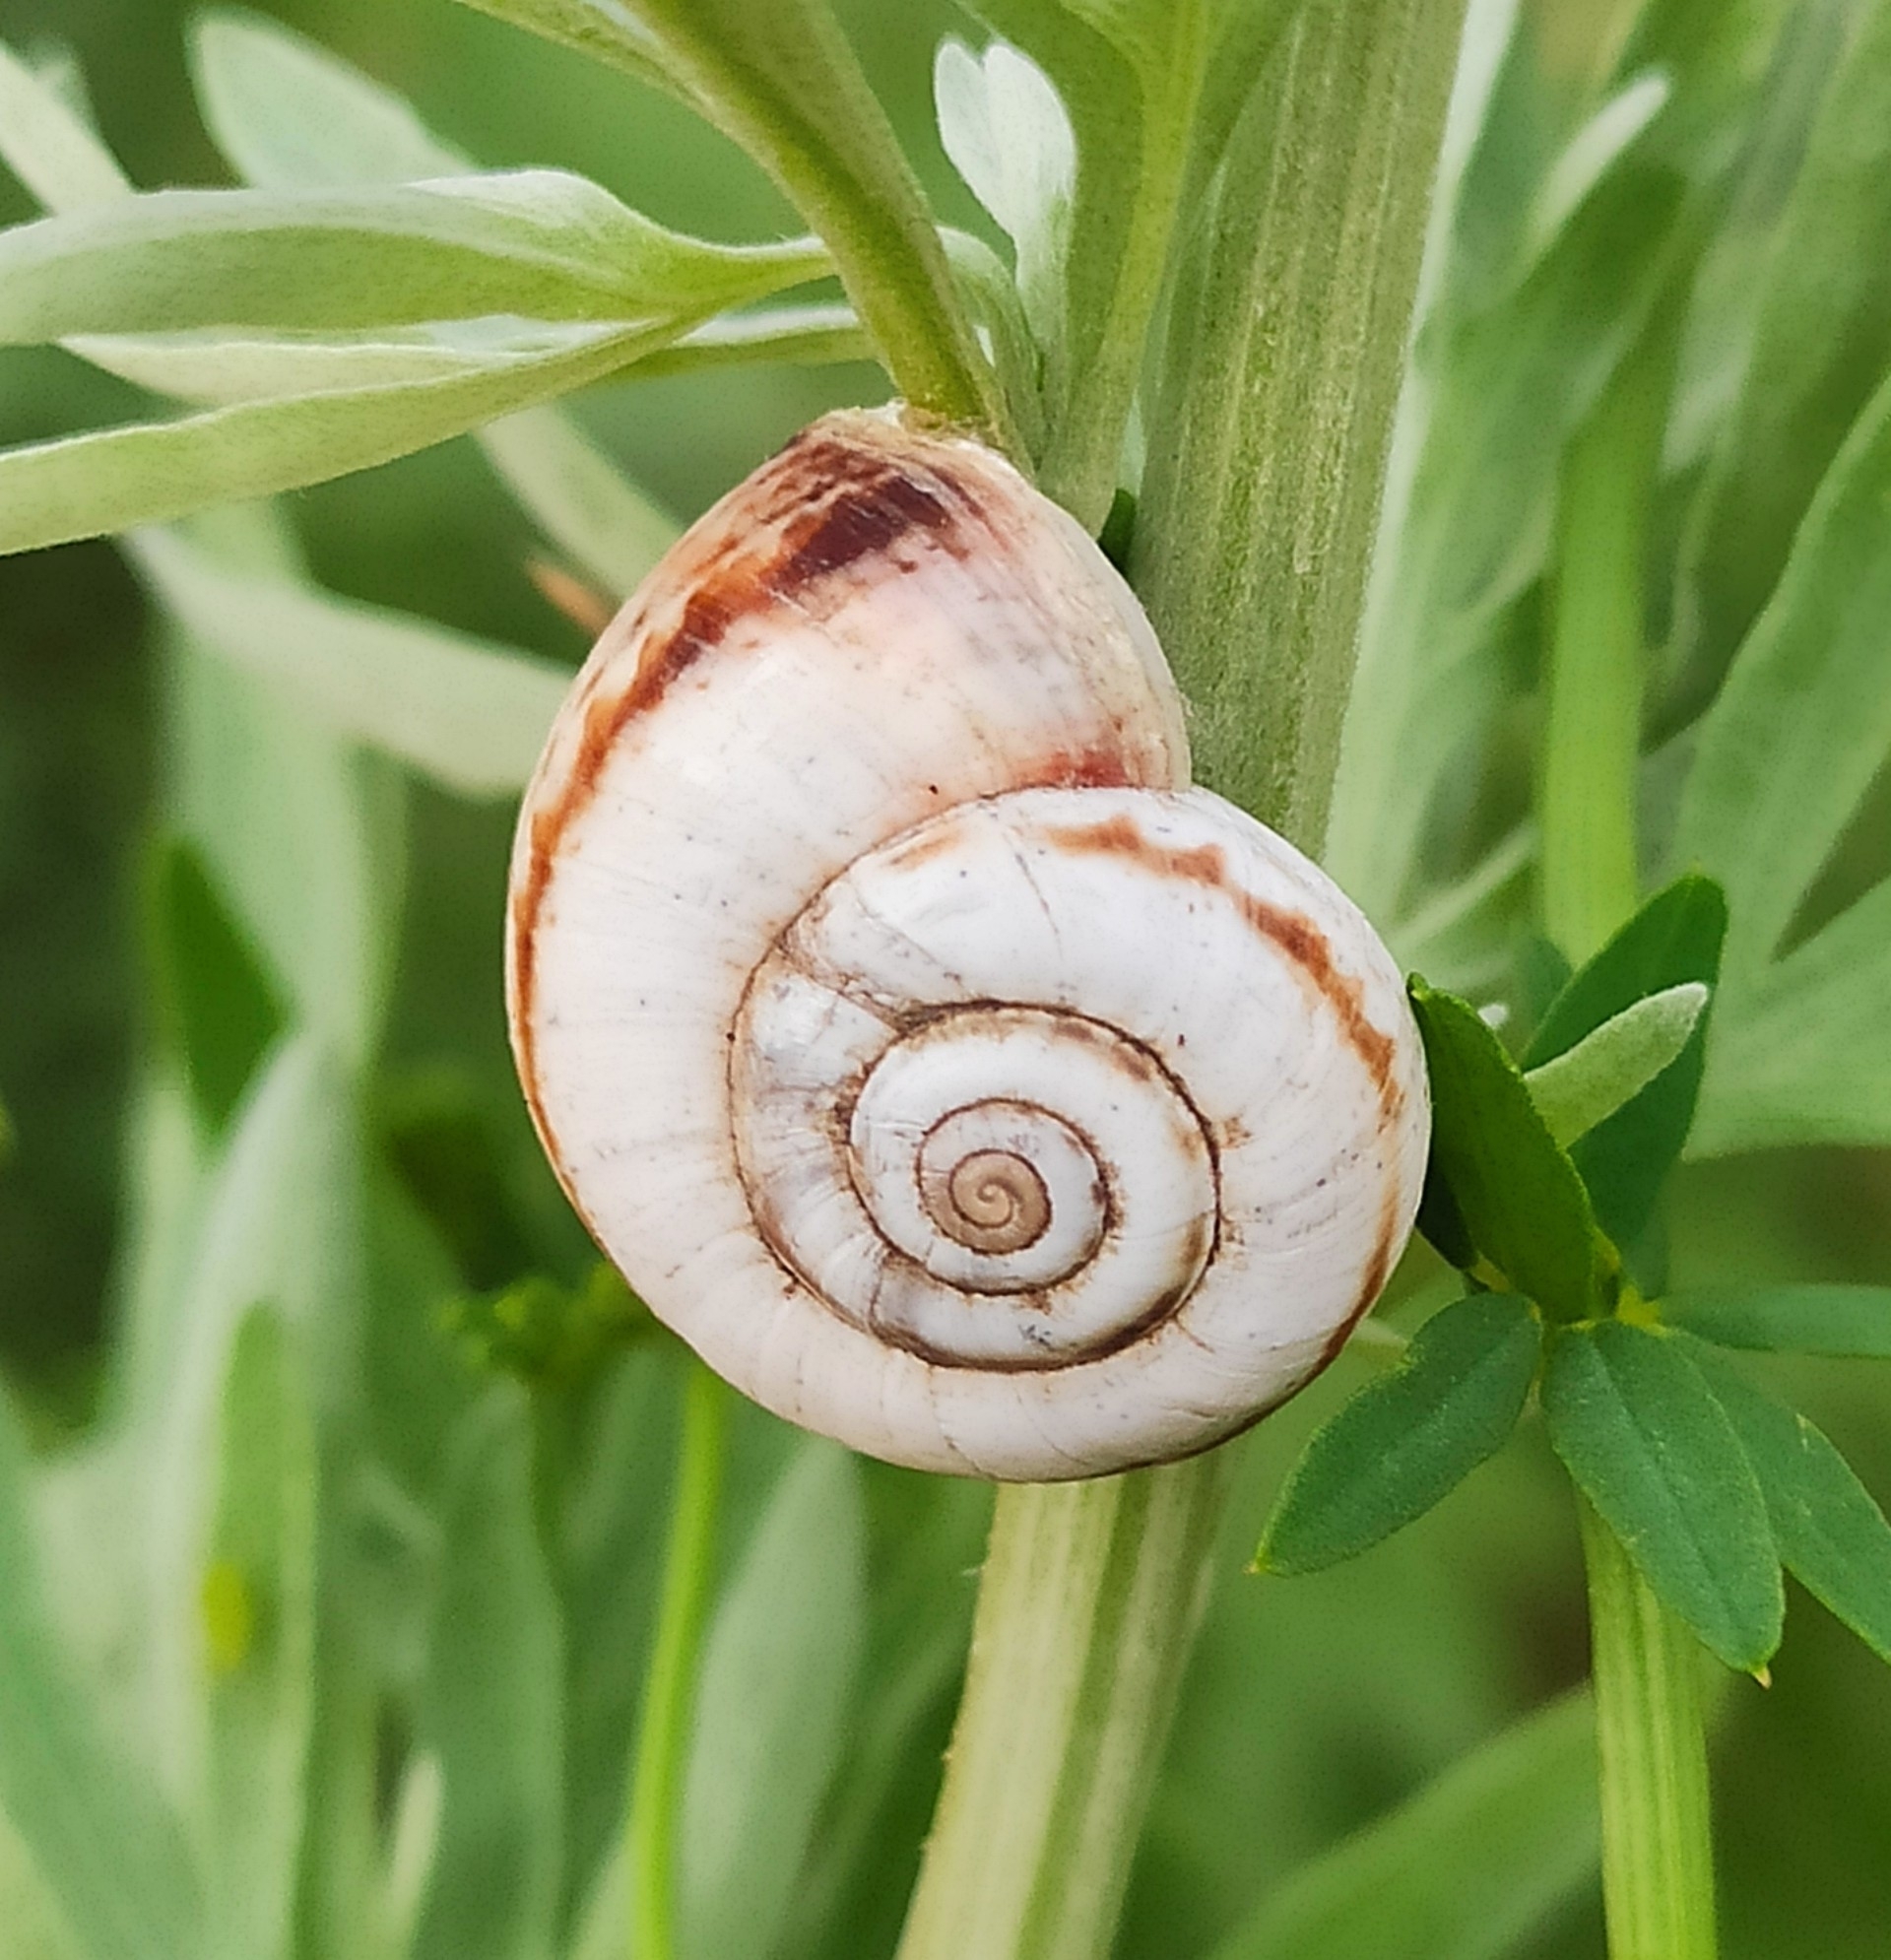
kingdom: Animalia
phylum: Mollusca
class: Gastropoda
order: Stylommatophora
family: Geomitridae
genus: Xeropicta
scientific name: Xeropicta derbentina
